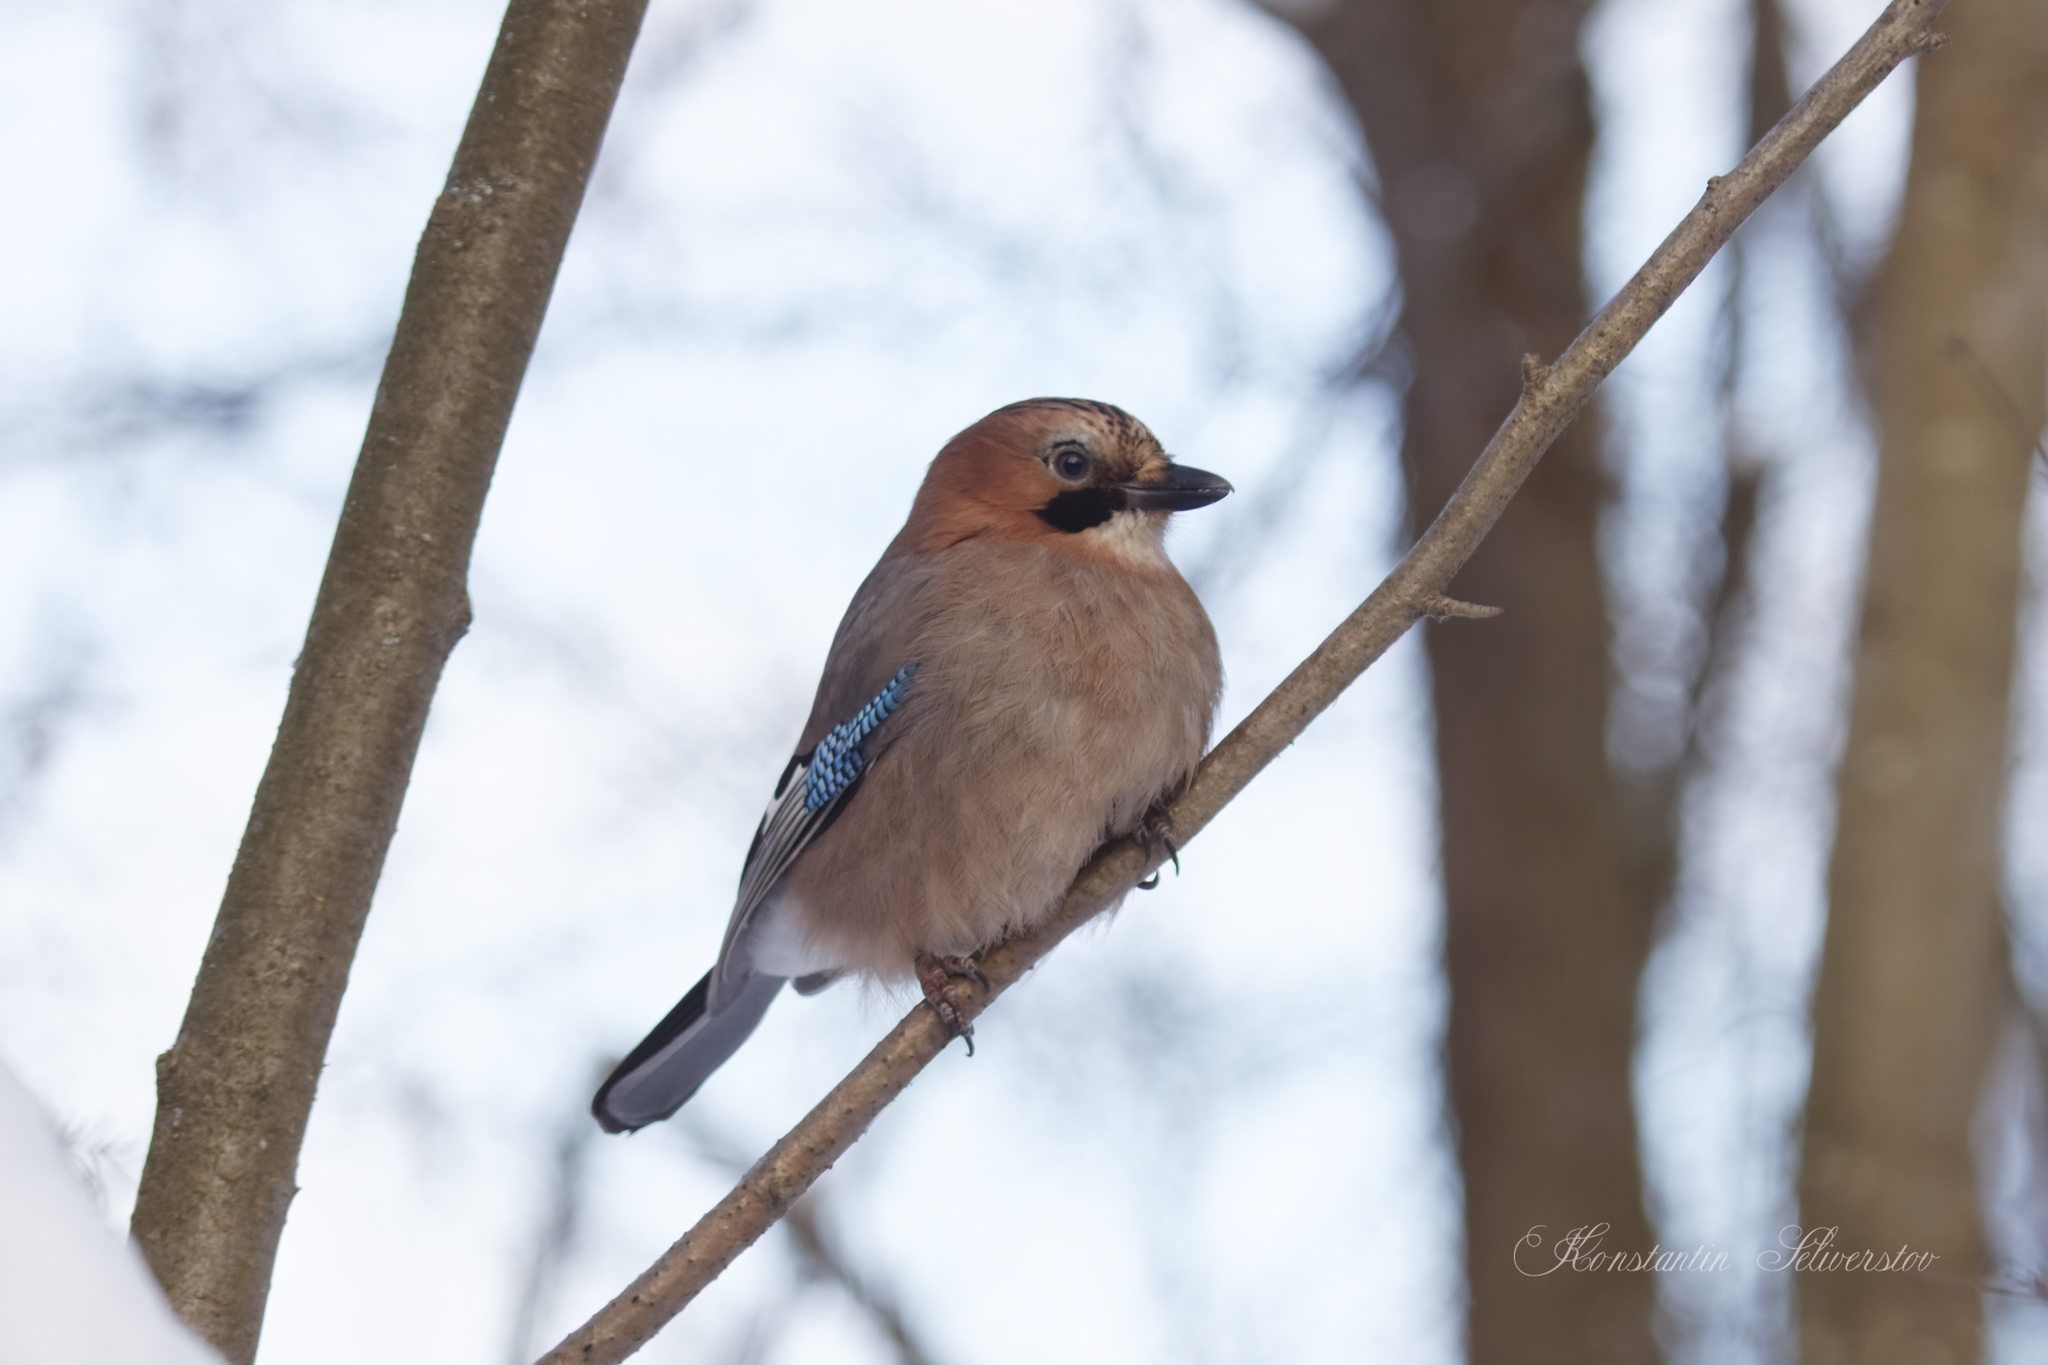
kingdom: Animalia
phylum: Chordata
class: Aves
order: Passeriformes
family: Corvidae
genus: Garrulus
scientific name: Garrulus glandarius
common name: Eurasian jay
